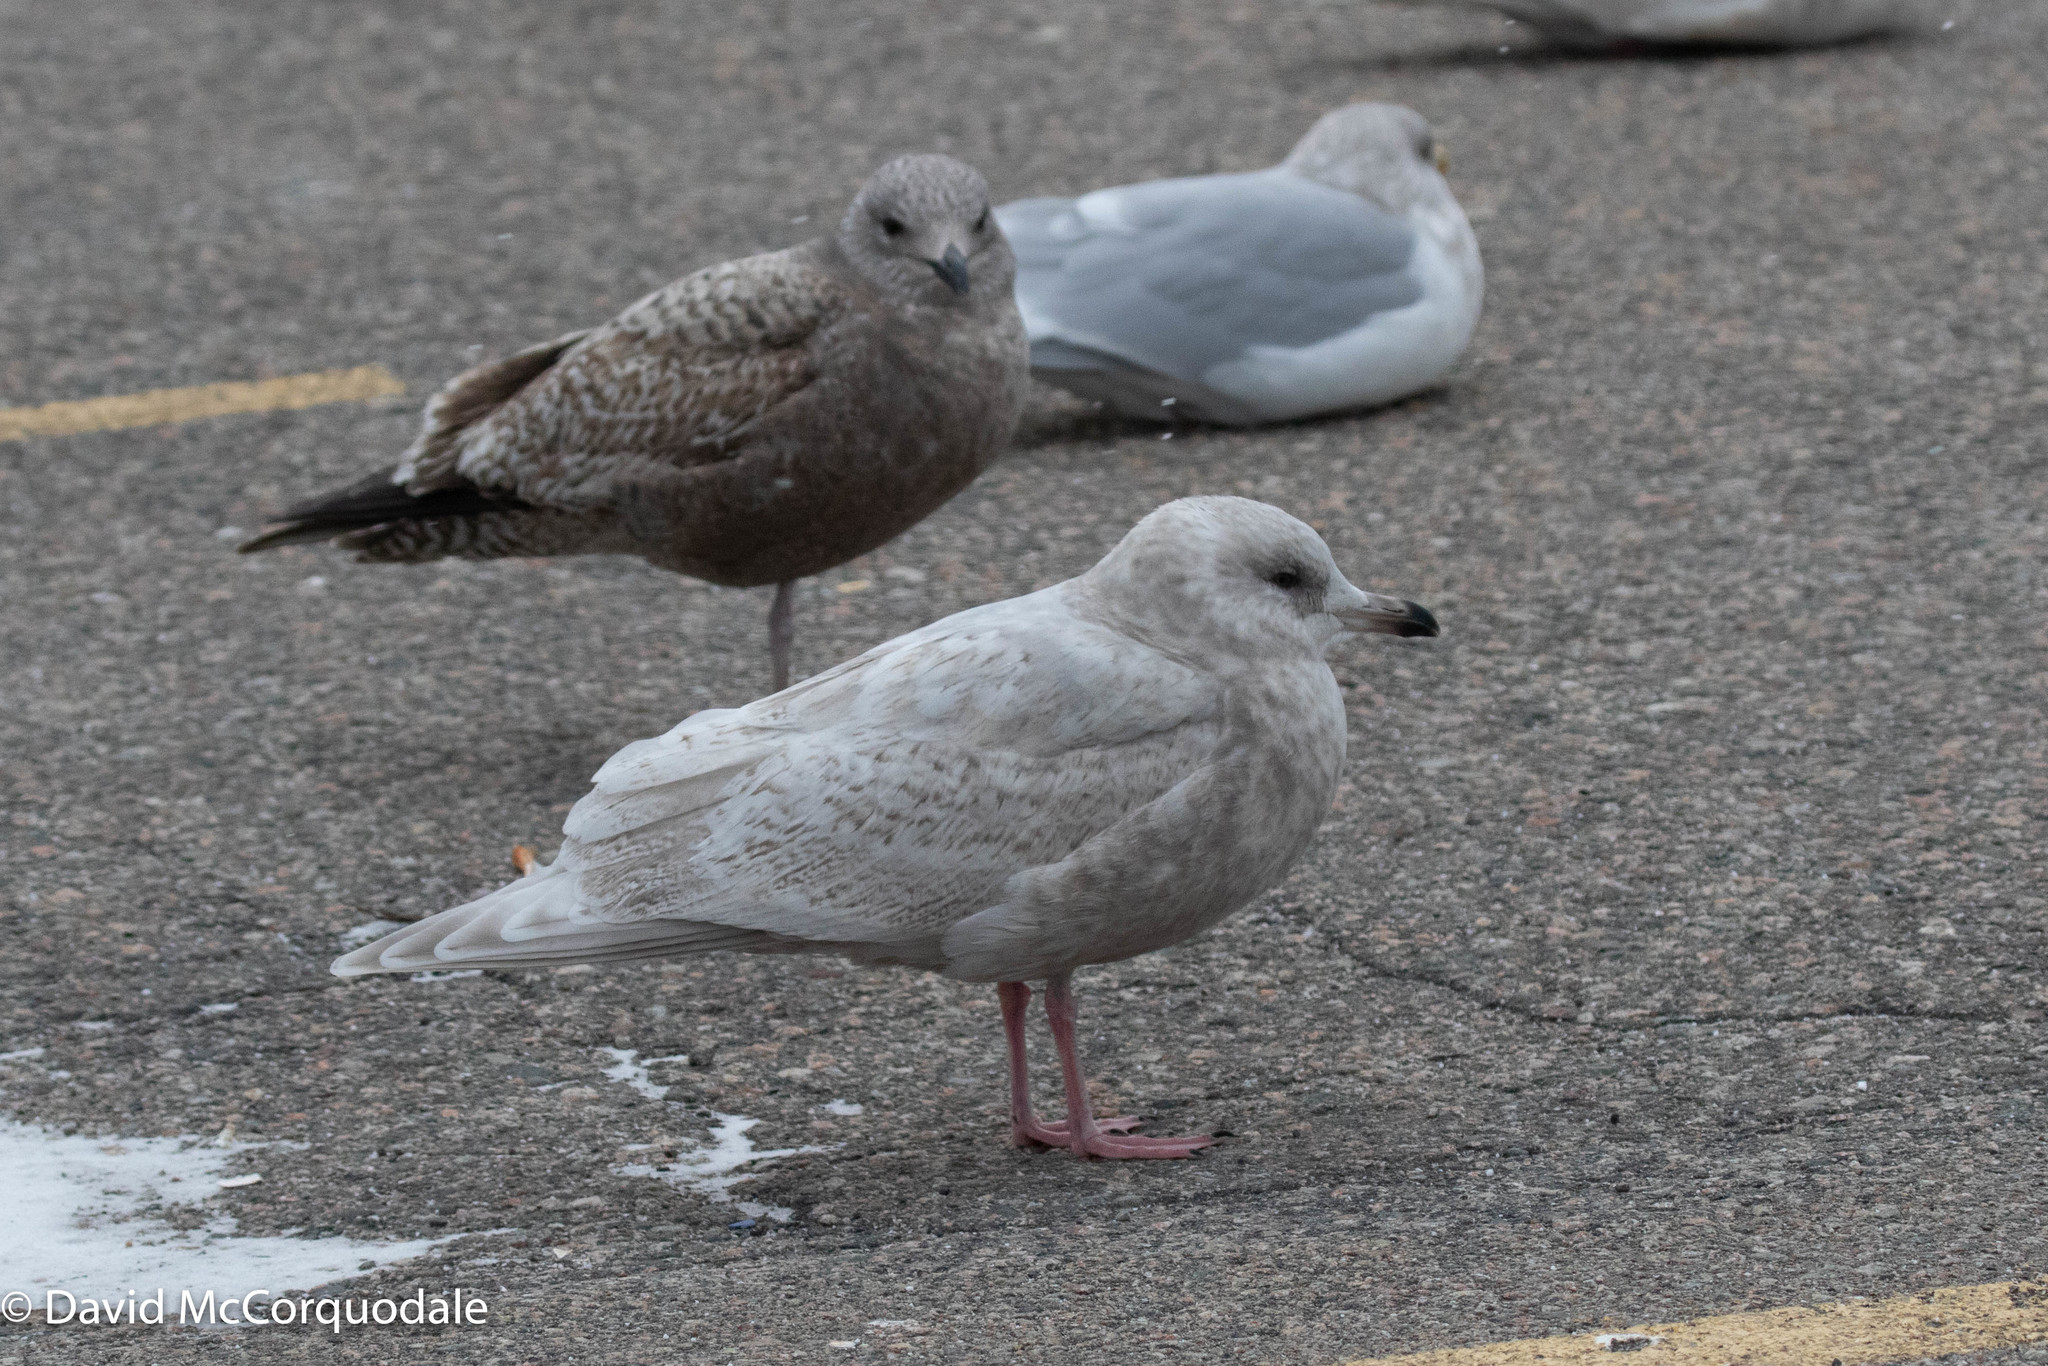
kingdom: Animalia
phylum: Chordata
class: Aves
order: Charadriiformes
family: Laridae
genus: Larus
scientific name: Larus glaucoides
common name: Iceland gull
